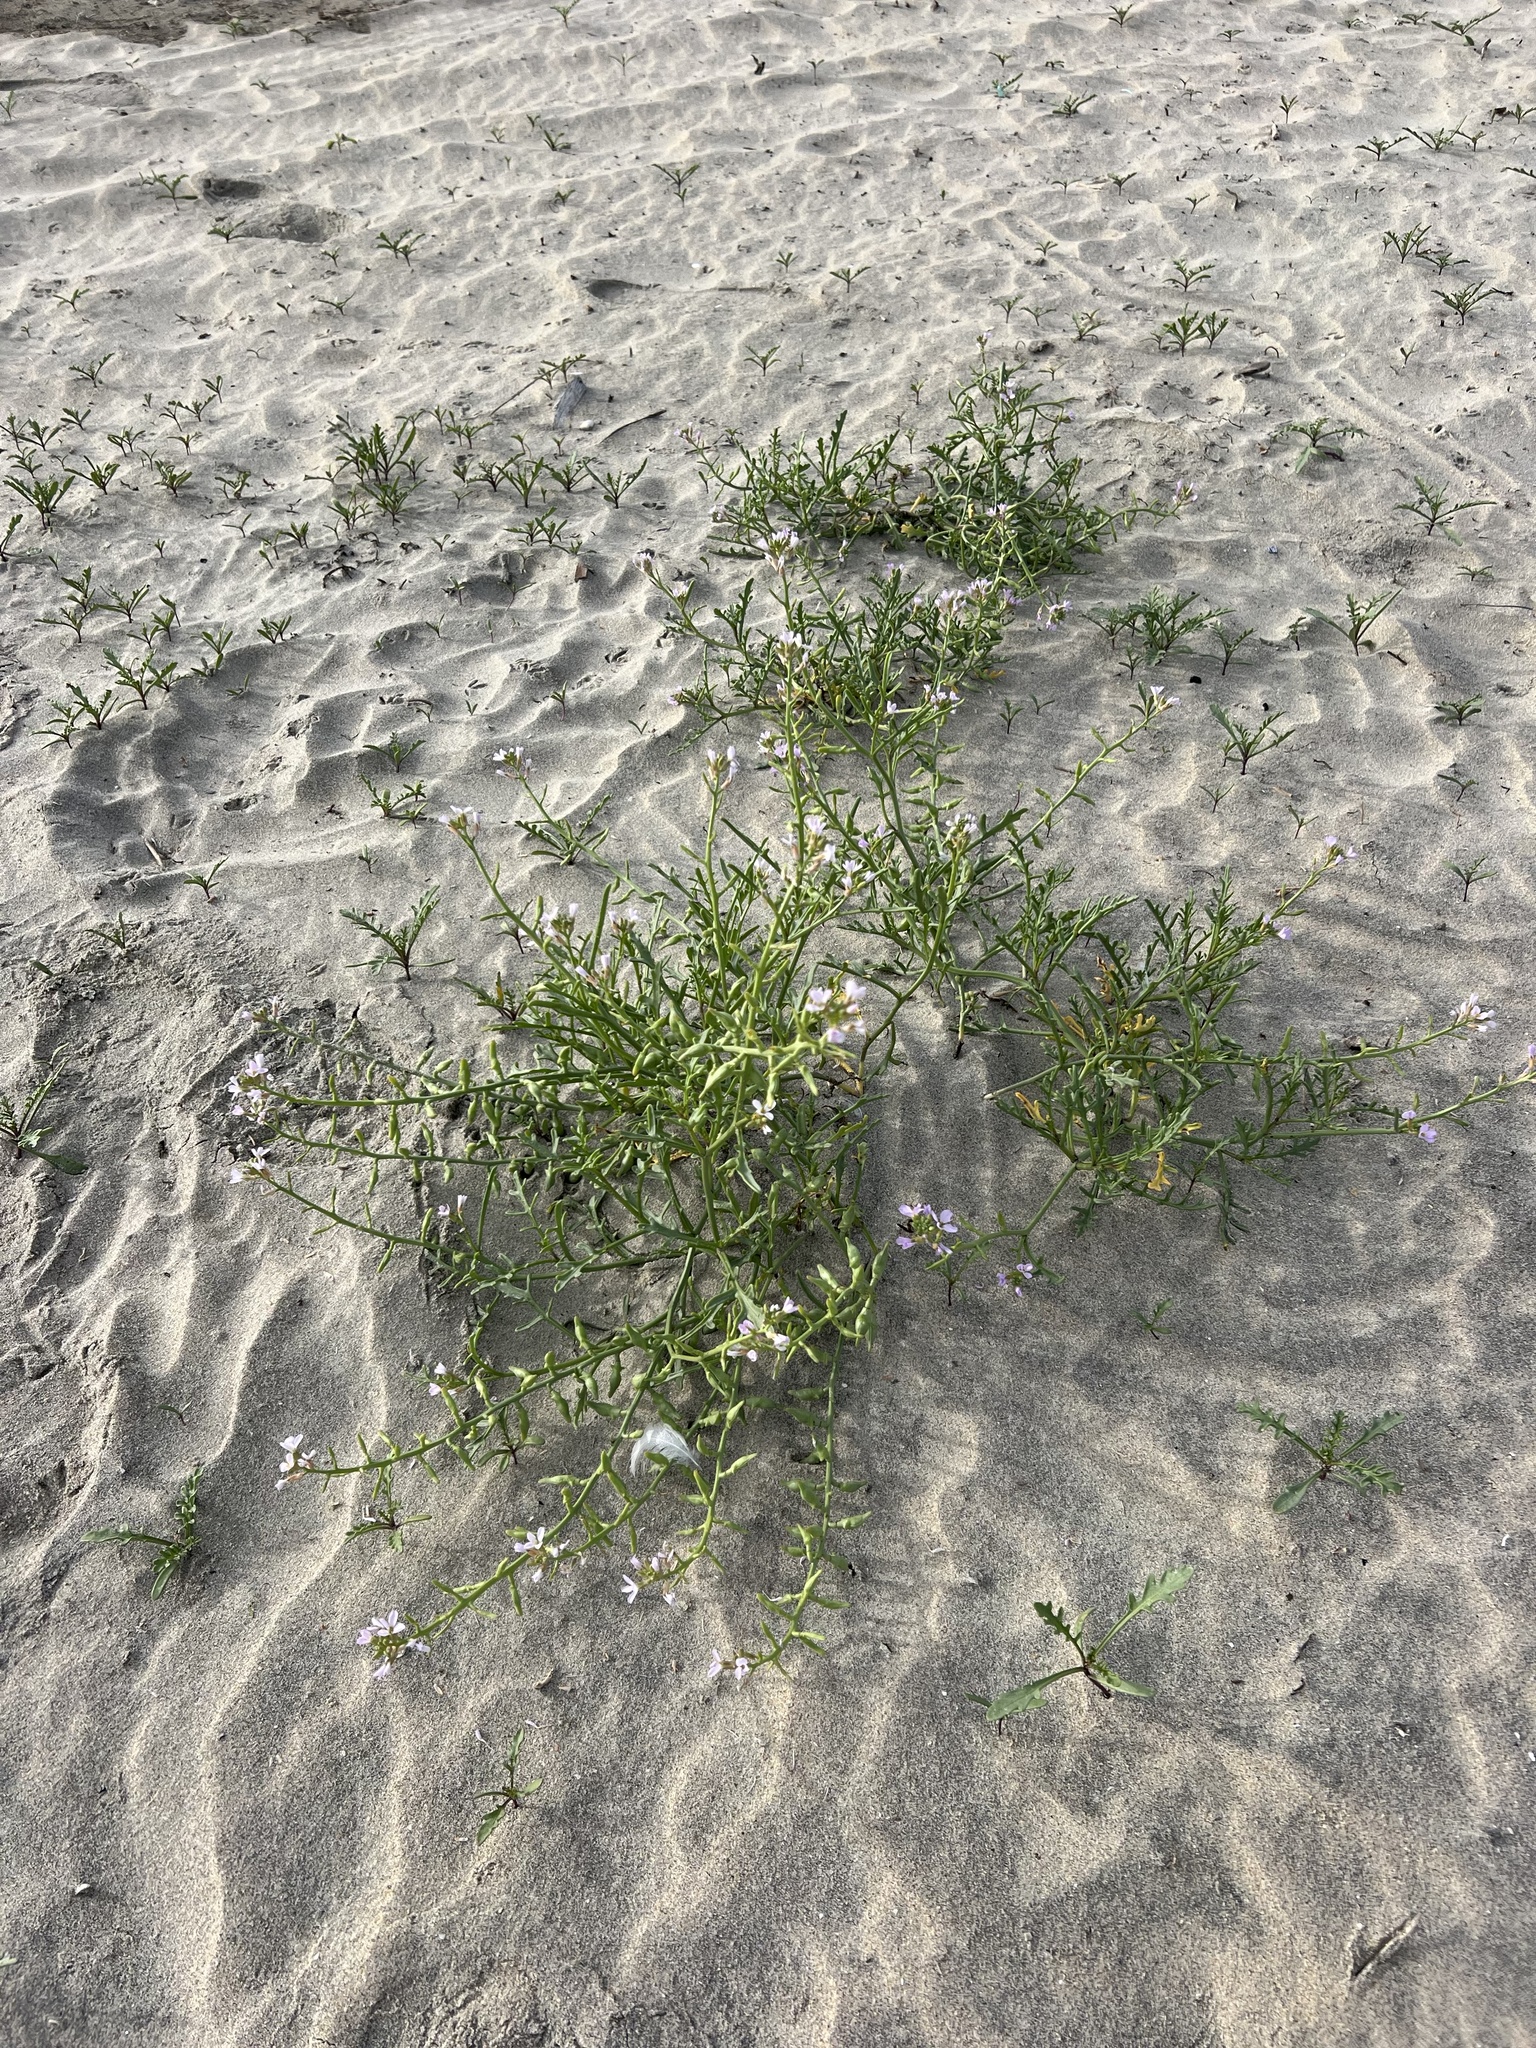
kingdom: Plantae
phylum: Tracheophyta
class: Magnoliopsida
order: Brassicales
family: Brassicaceae
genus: Cakile
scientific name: Cakile maritima
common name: Sea rocket
